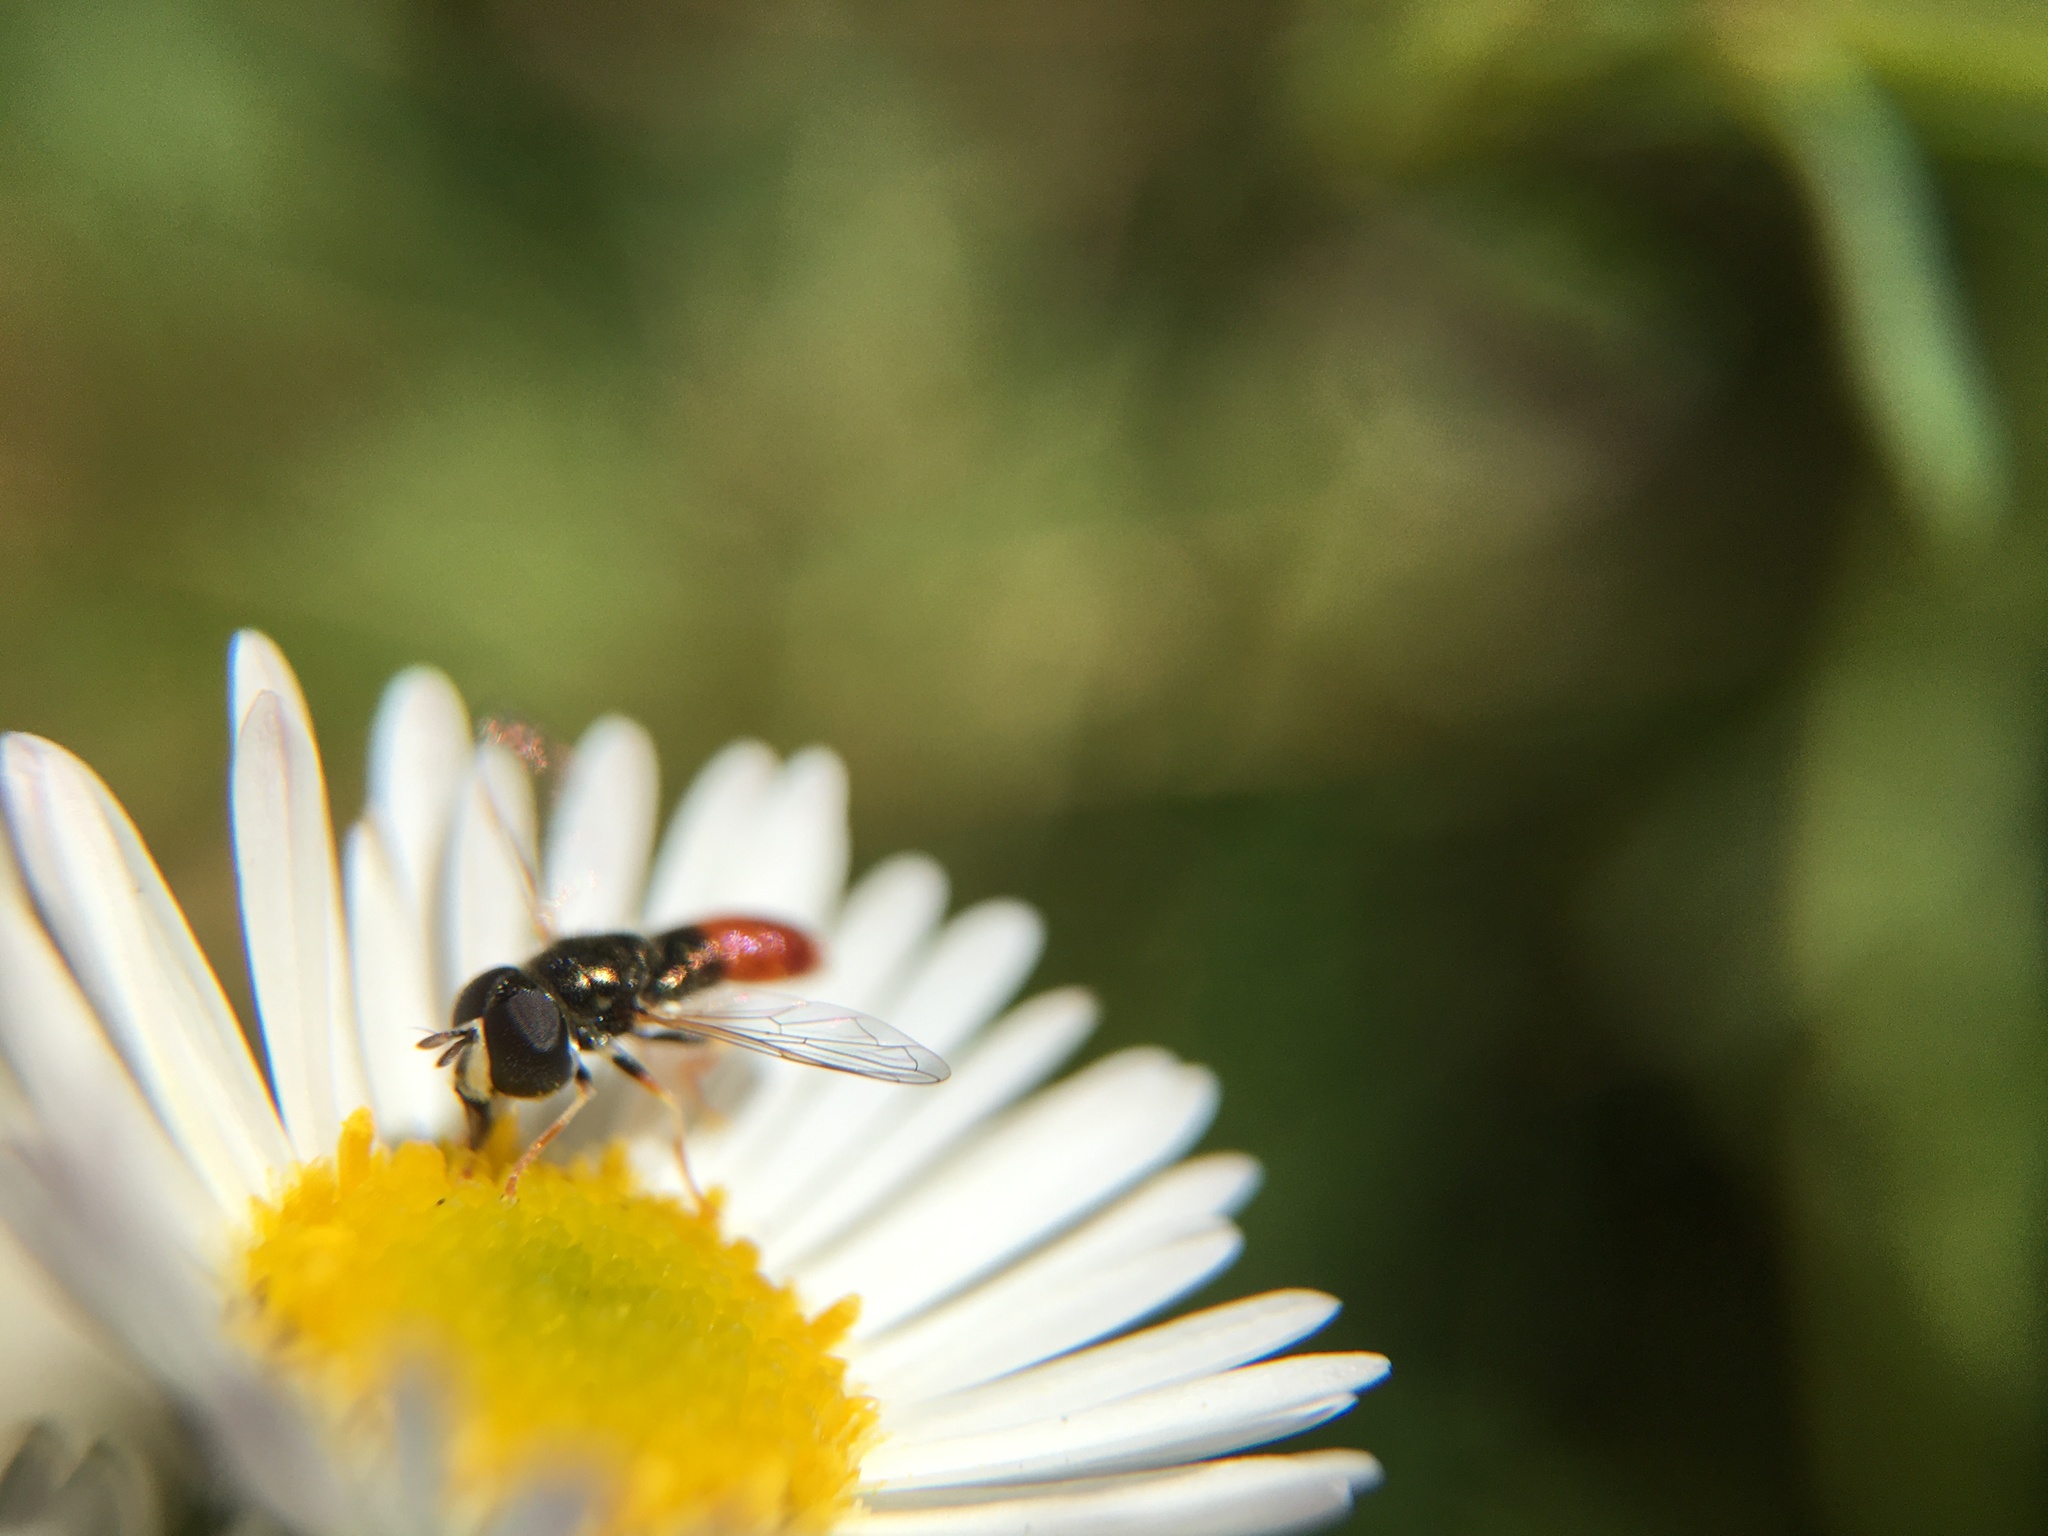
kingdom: Animalia
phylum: Arthropoda
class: Insecta
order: Diptera
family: Syrphidae
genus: Paragus
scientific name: Paragus haemorrhous
